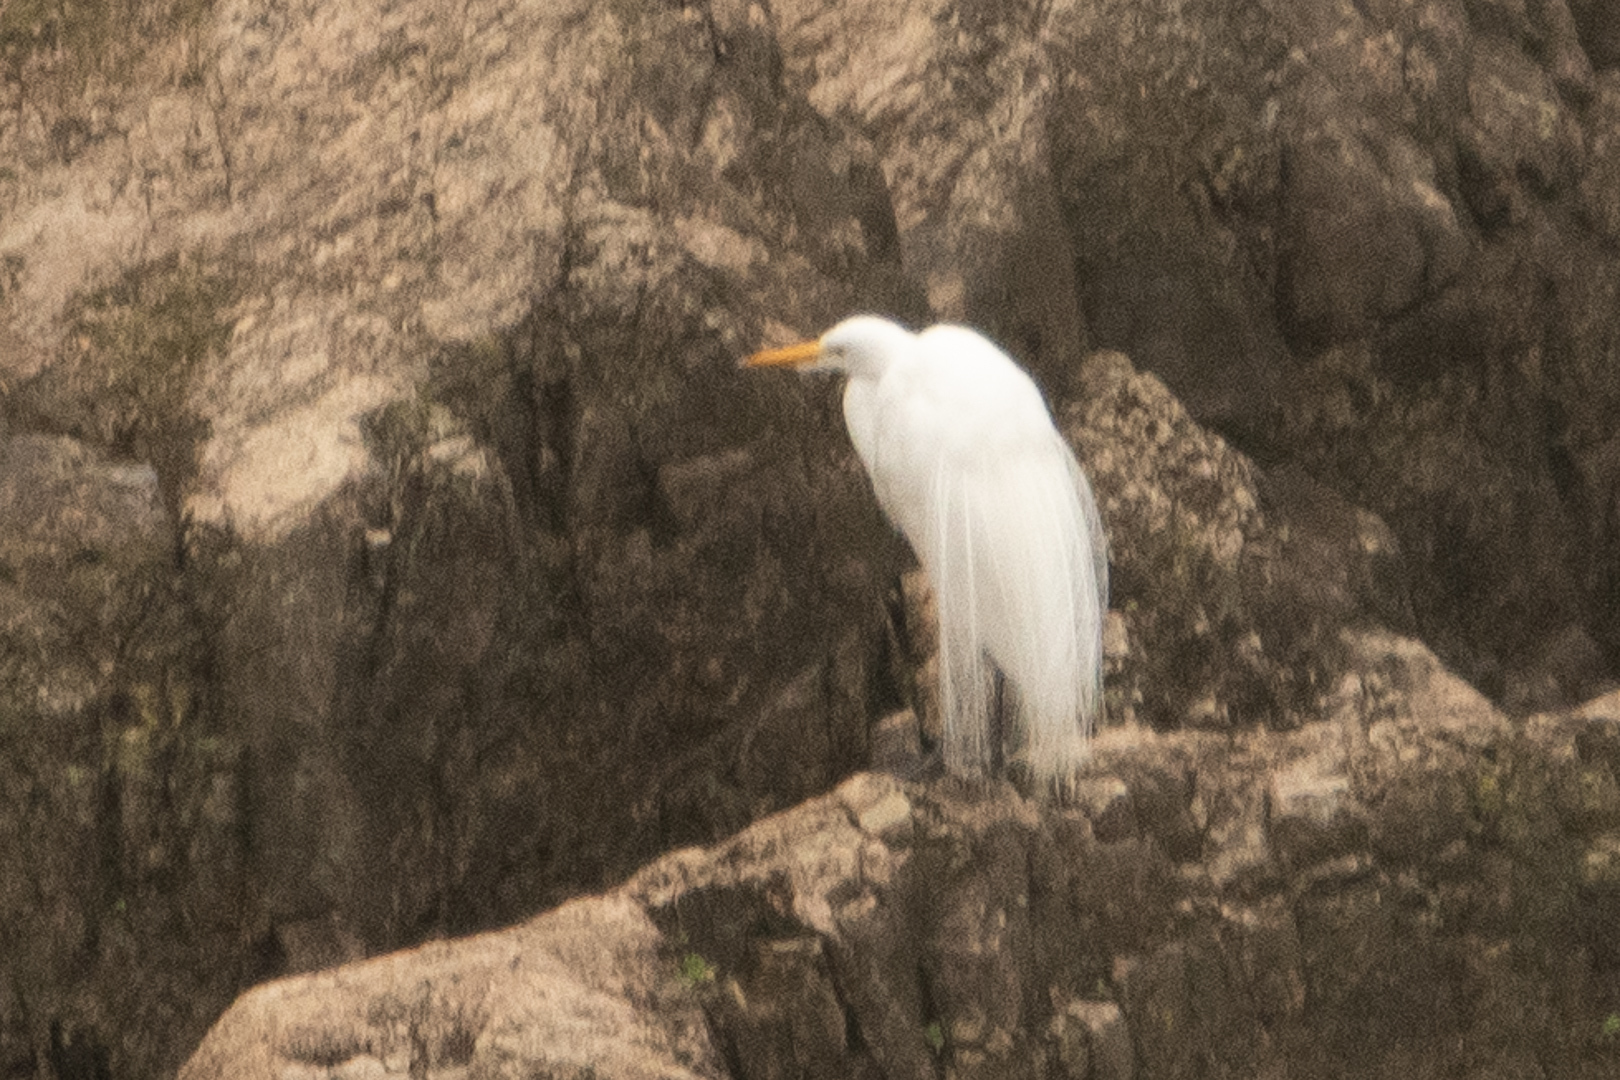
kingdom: Animalia
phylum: Chordata
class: Aves
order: Pelecaniformes
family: Ardeidae
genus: Ardea
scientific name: Ardea alba
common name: Great egret
